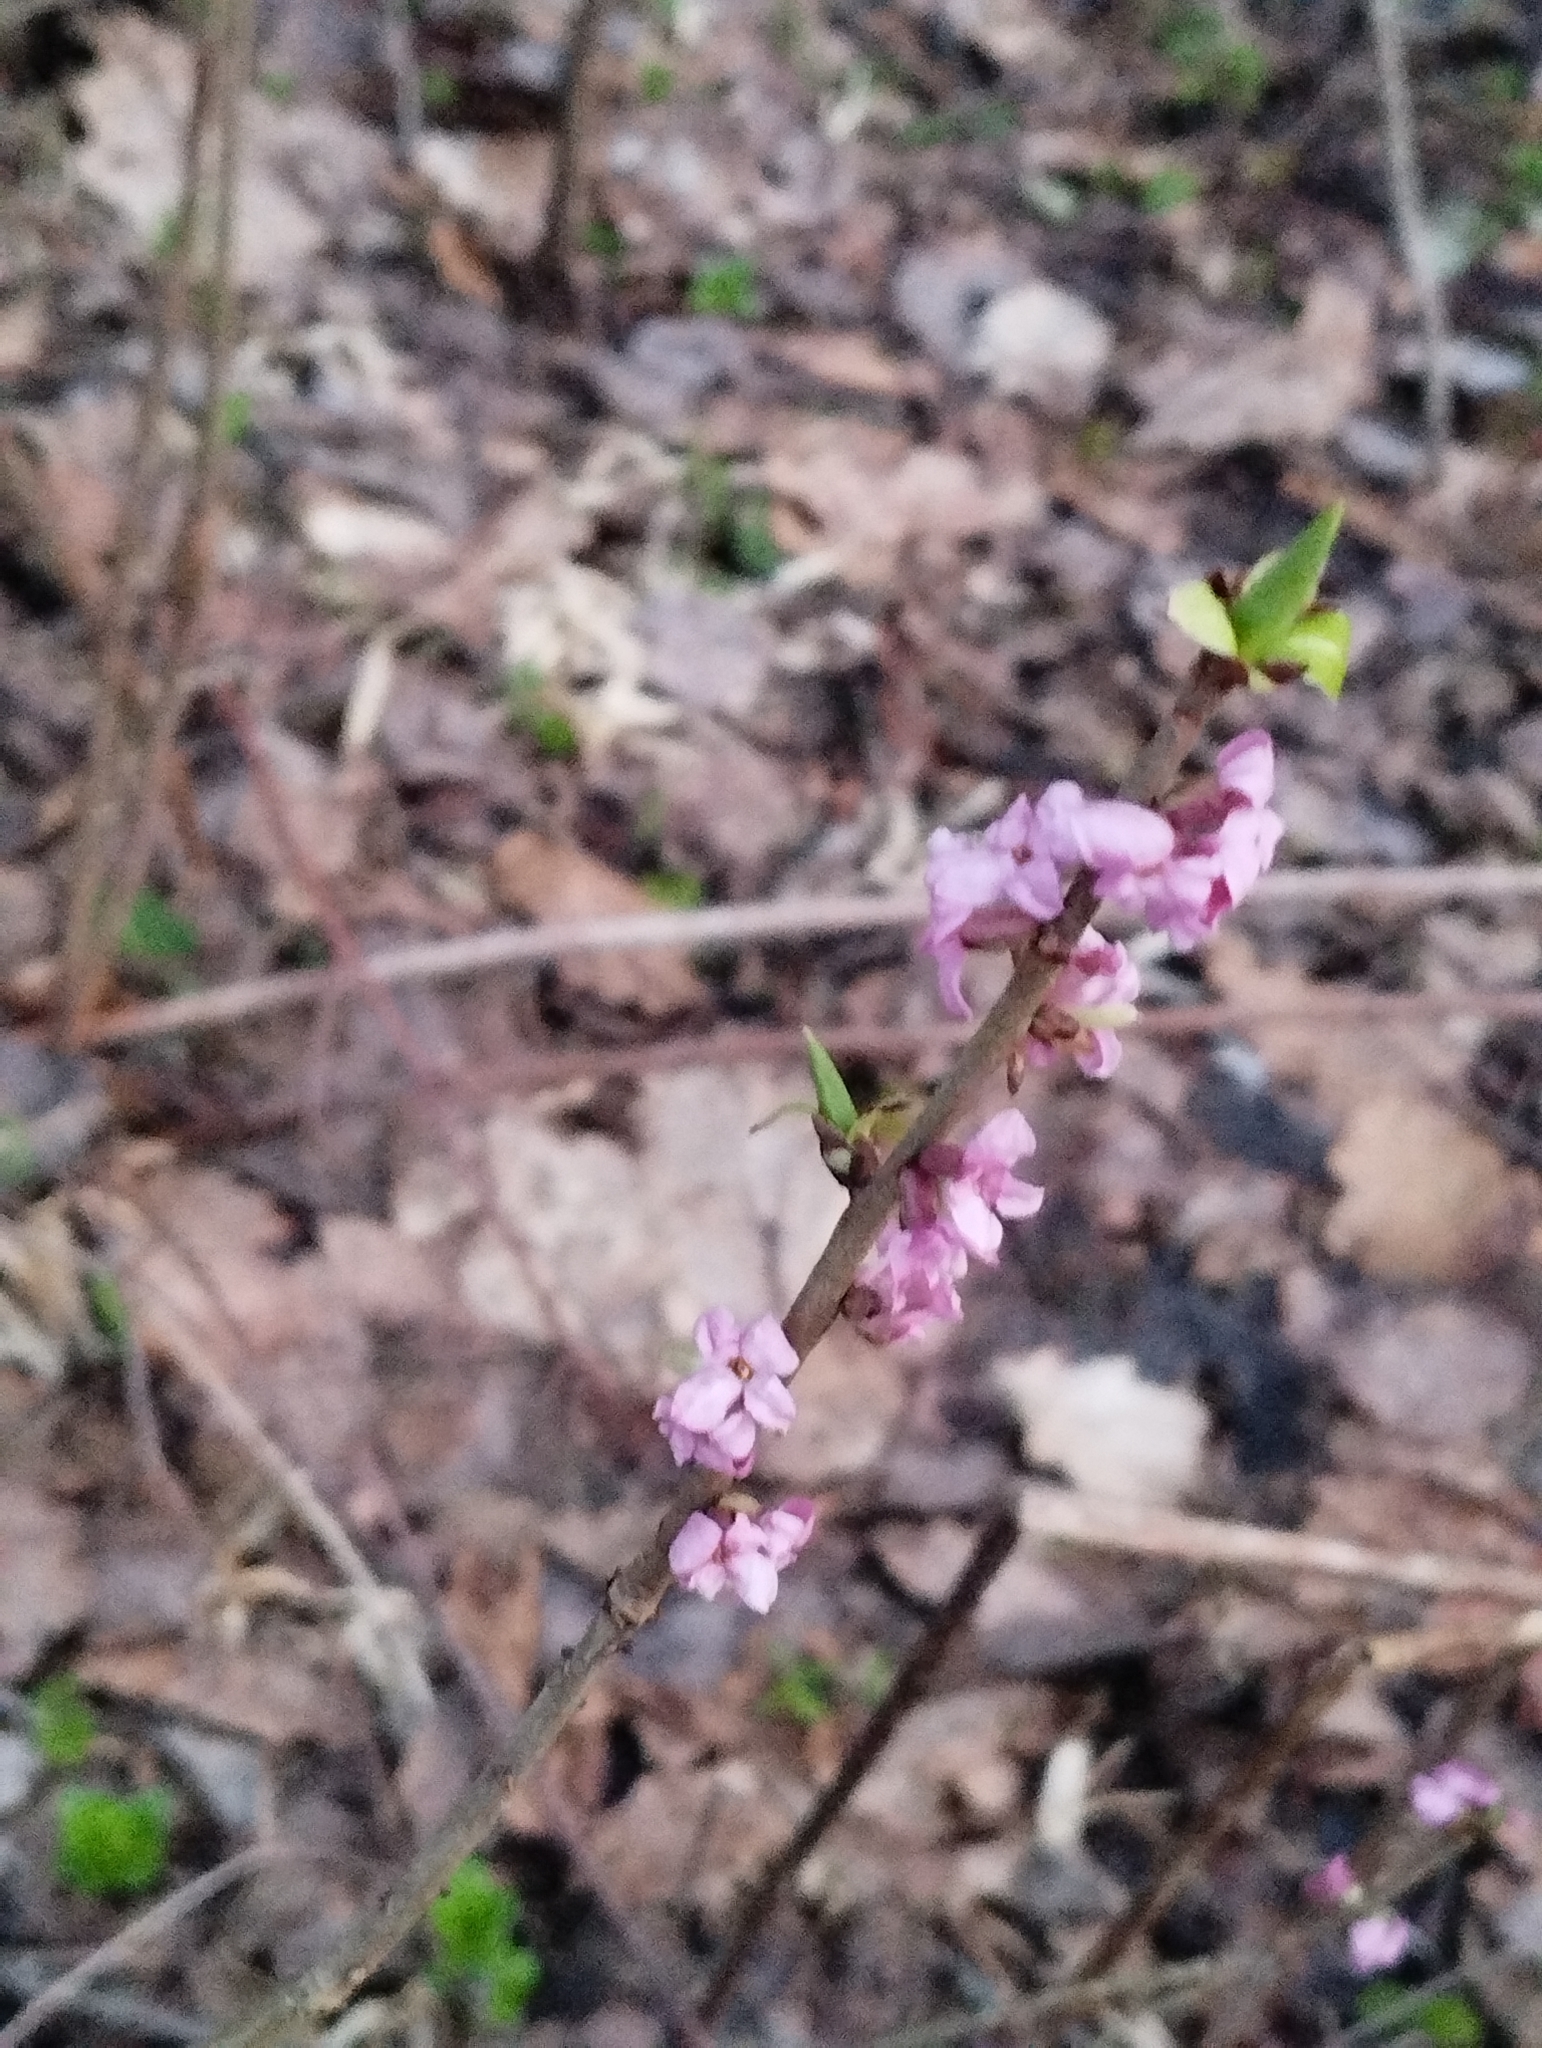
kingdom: Plantae
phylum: Tracheophyta
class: Magnoliopsida
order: Malvales
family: Thymelaeaceae
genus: Daphne
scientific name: Daphne mezereum
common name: Mezereon
